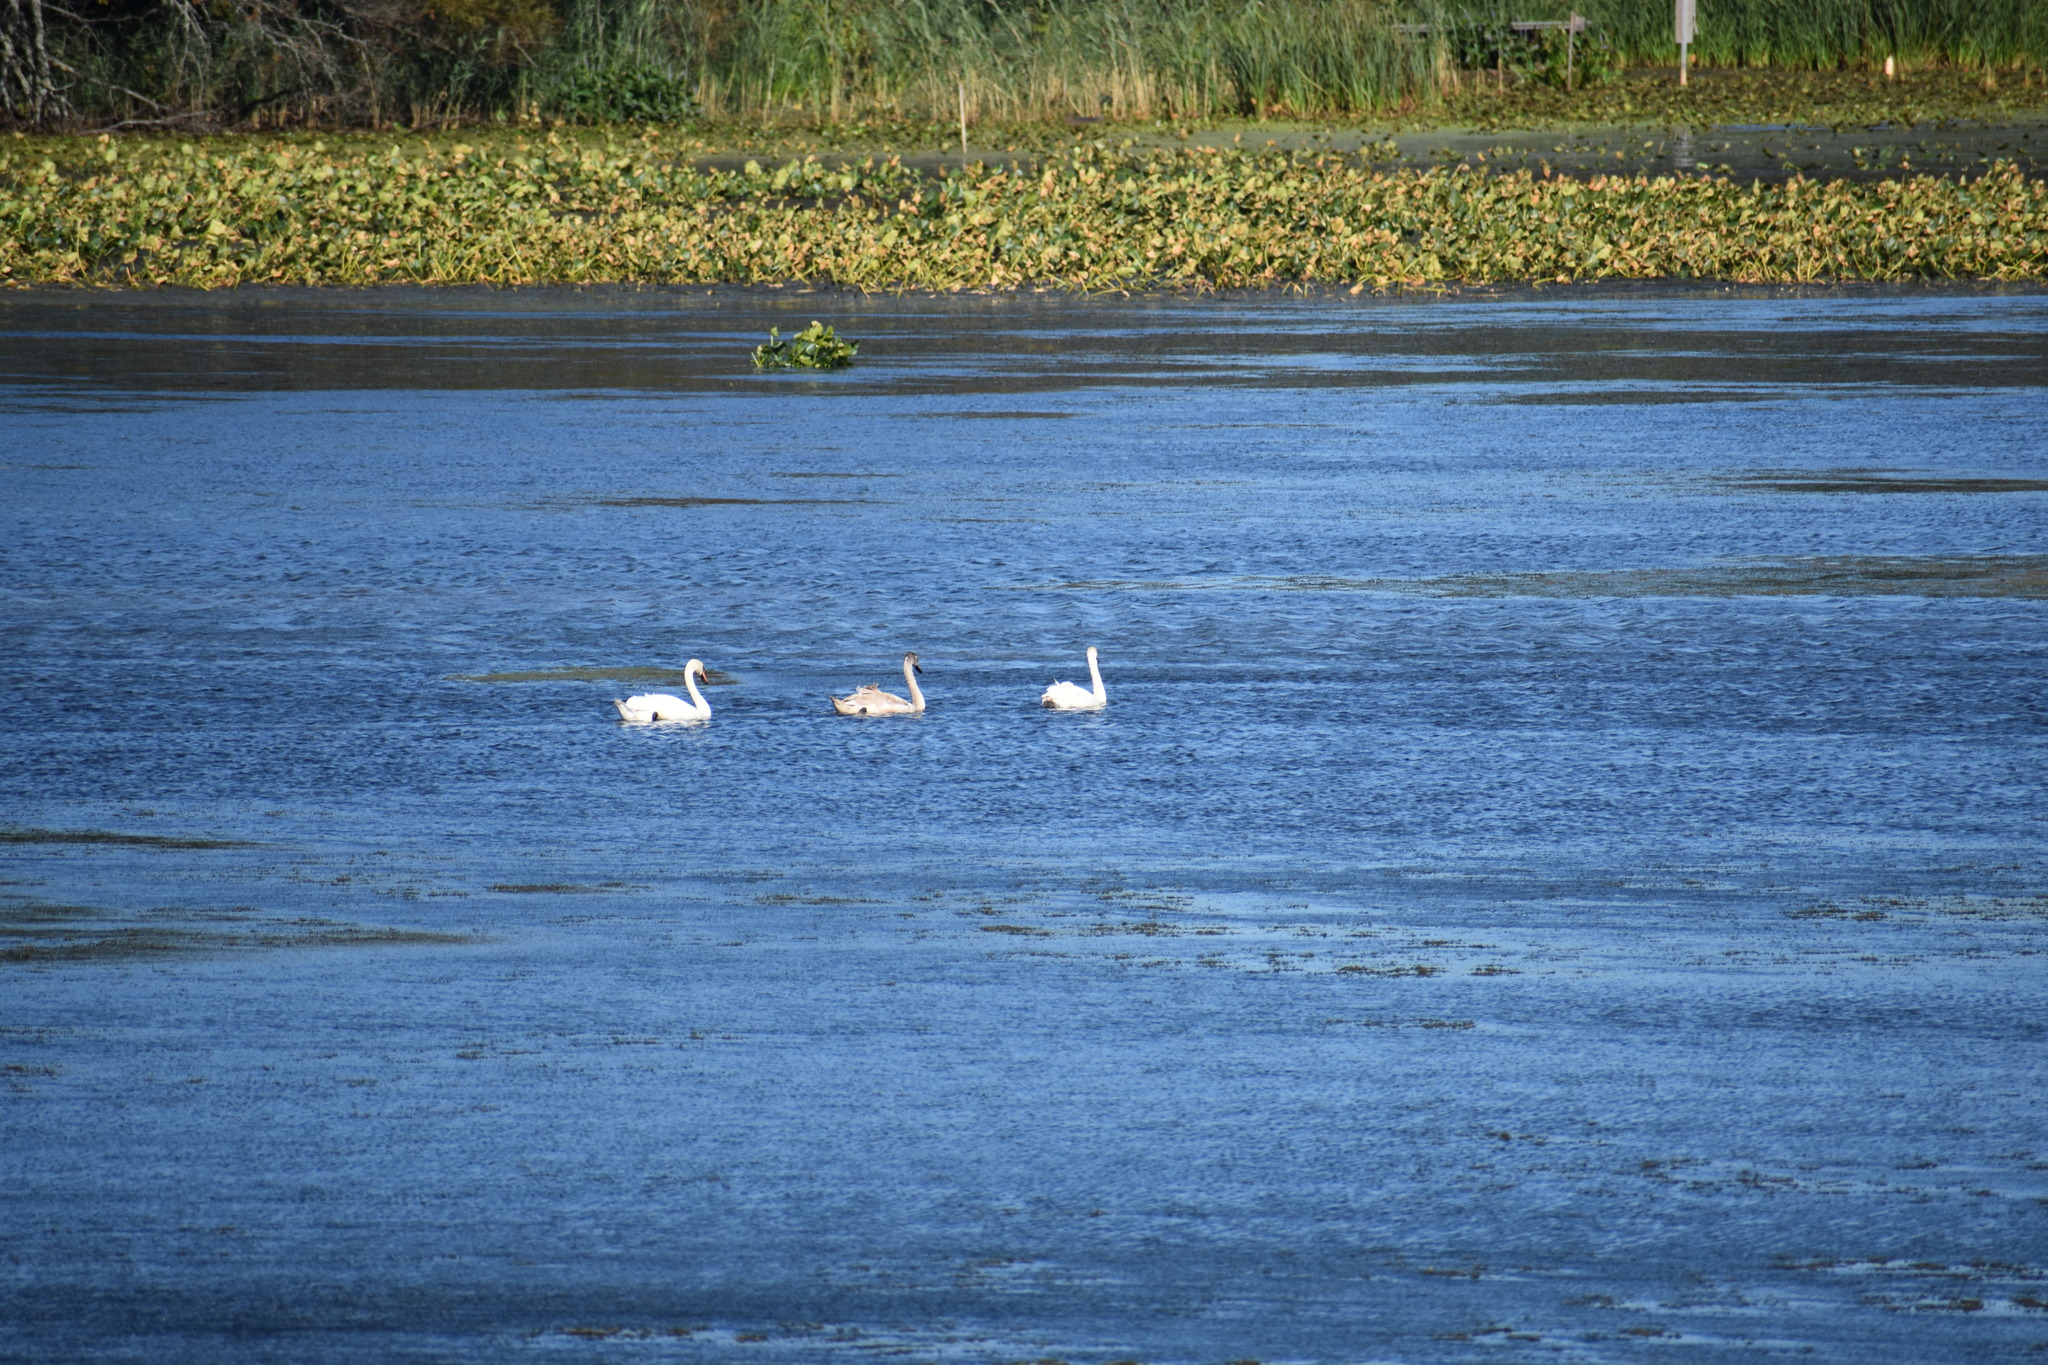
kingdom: Animalia
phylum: Chordata
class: Aves
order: Anseriformes
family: Anatidae
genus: Cygnus
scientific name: Cygnus olor
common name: Mute swan
